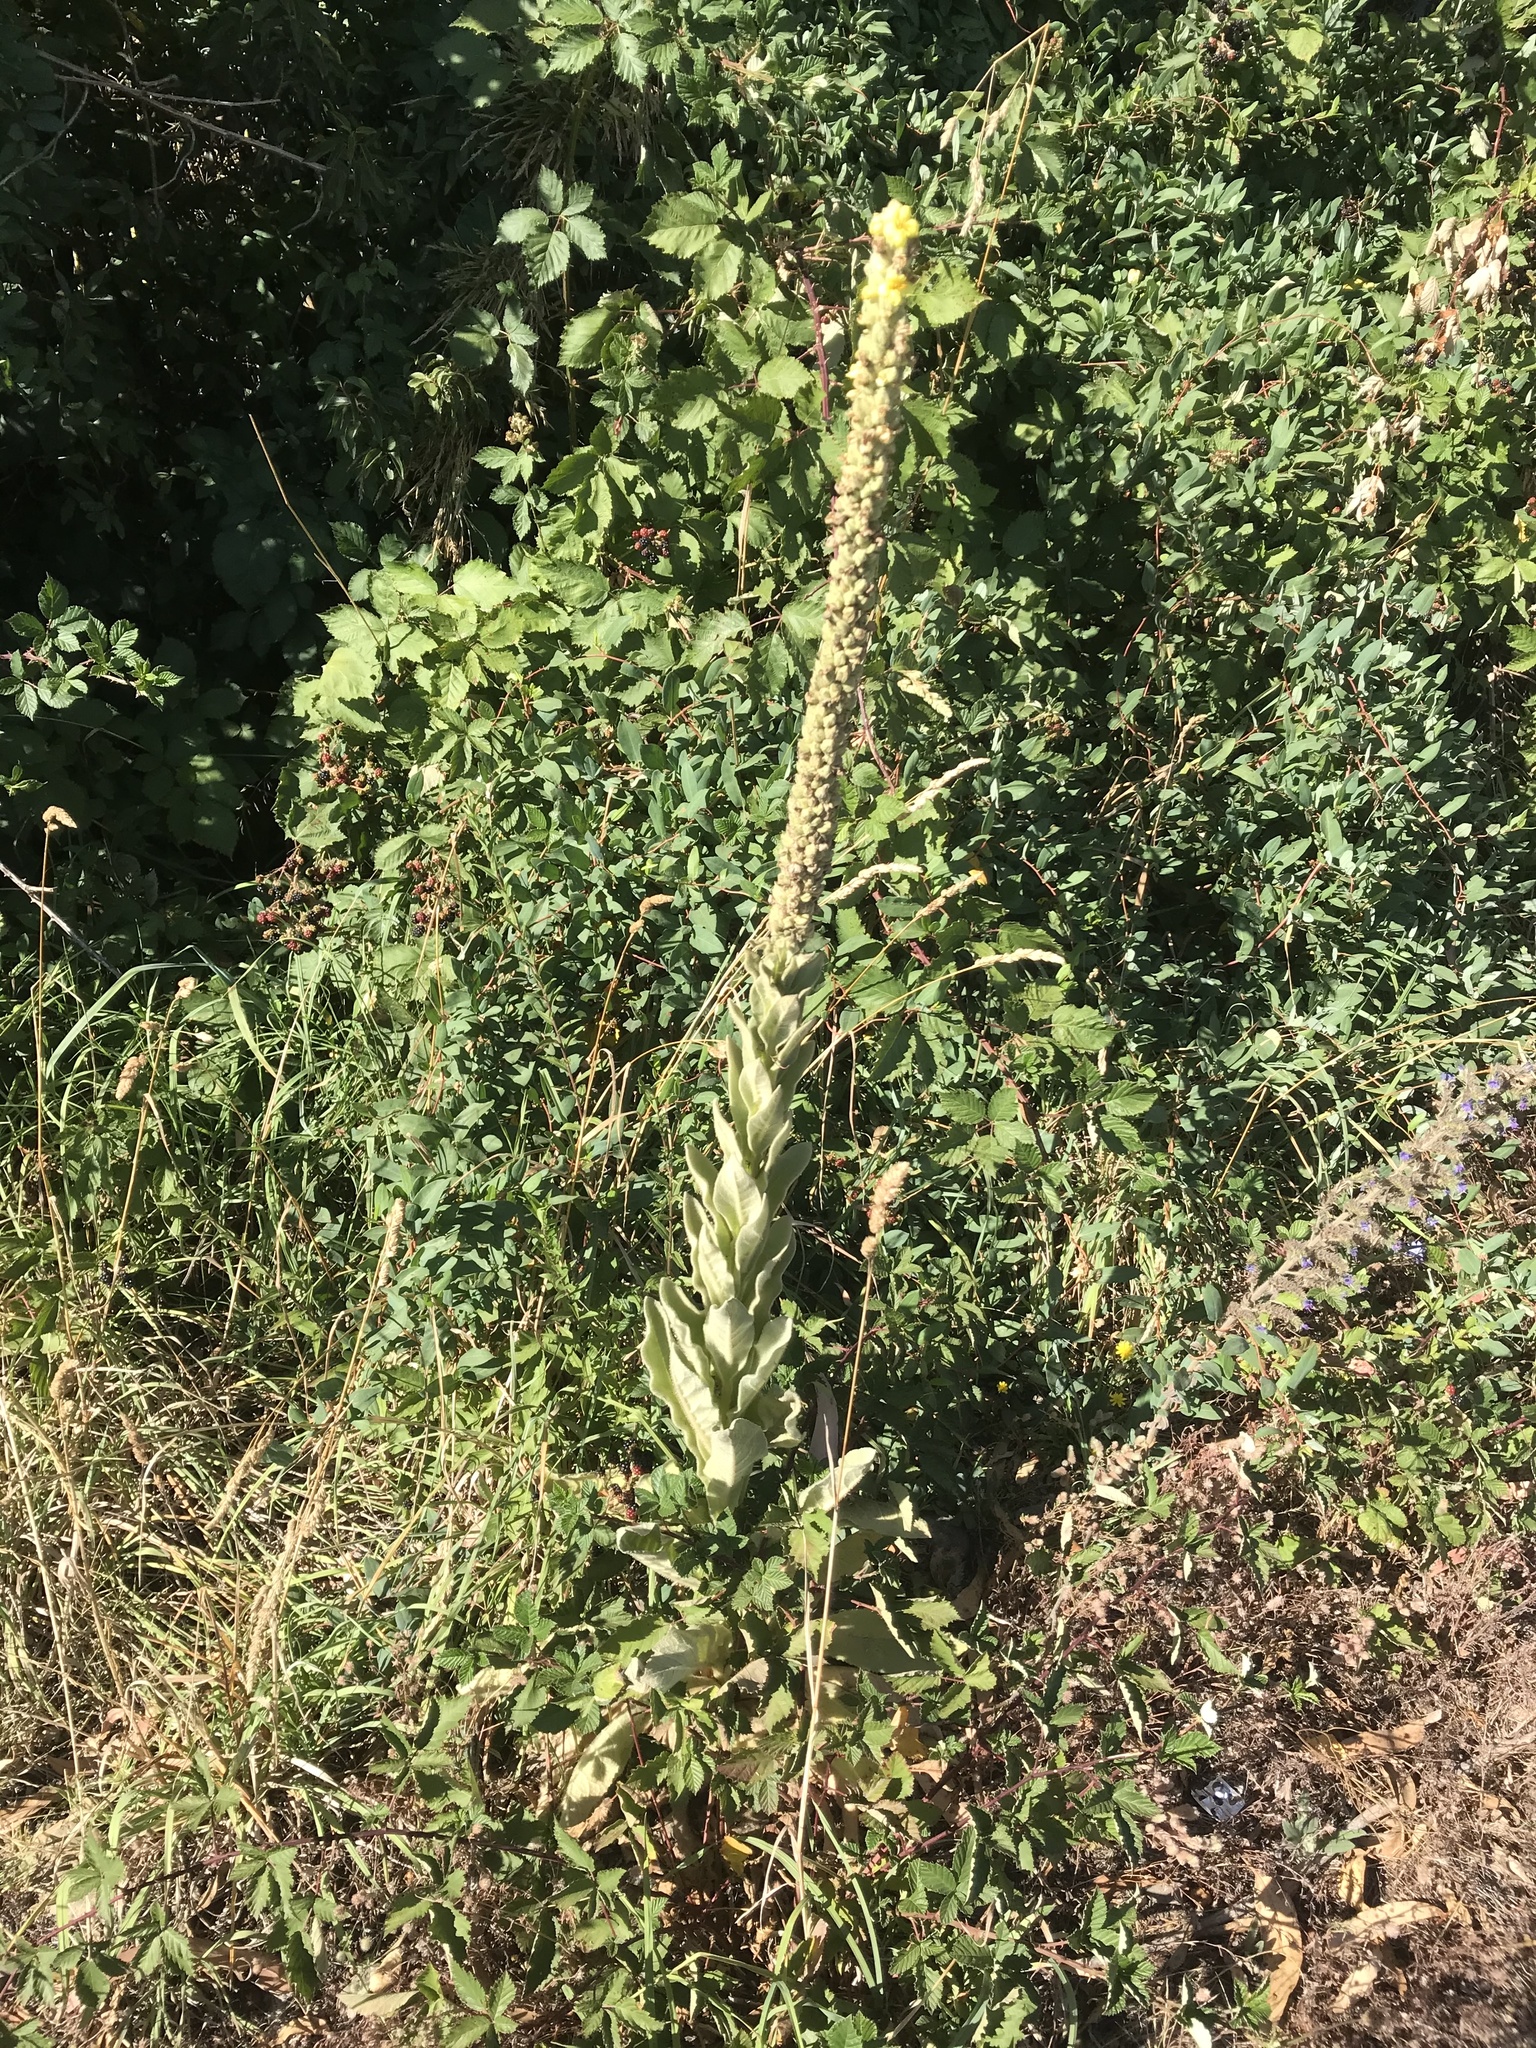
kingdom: Plantae
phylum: Tracheophyta
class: Magnoliopsida
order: Lamiales
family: Scrophulariaceae
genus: Verbascum
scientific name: Verbascum thapsus
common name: Common mullein
